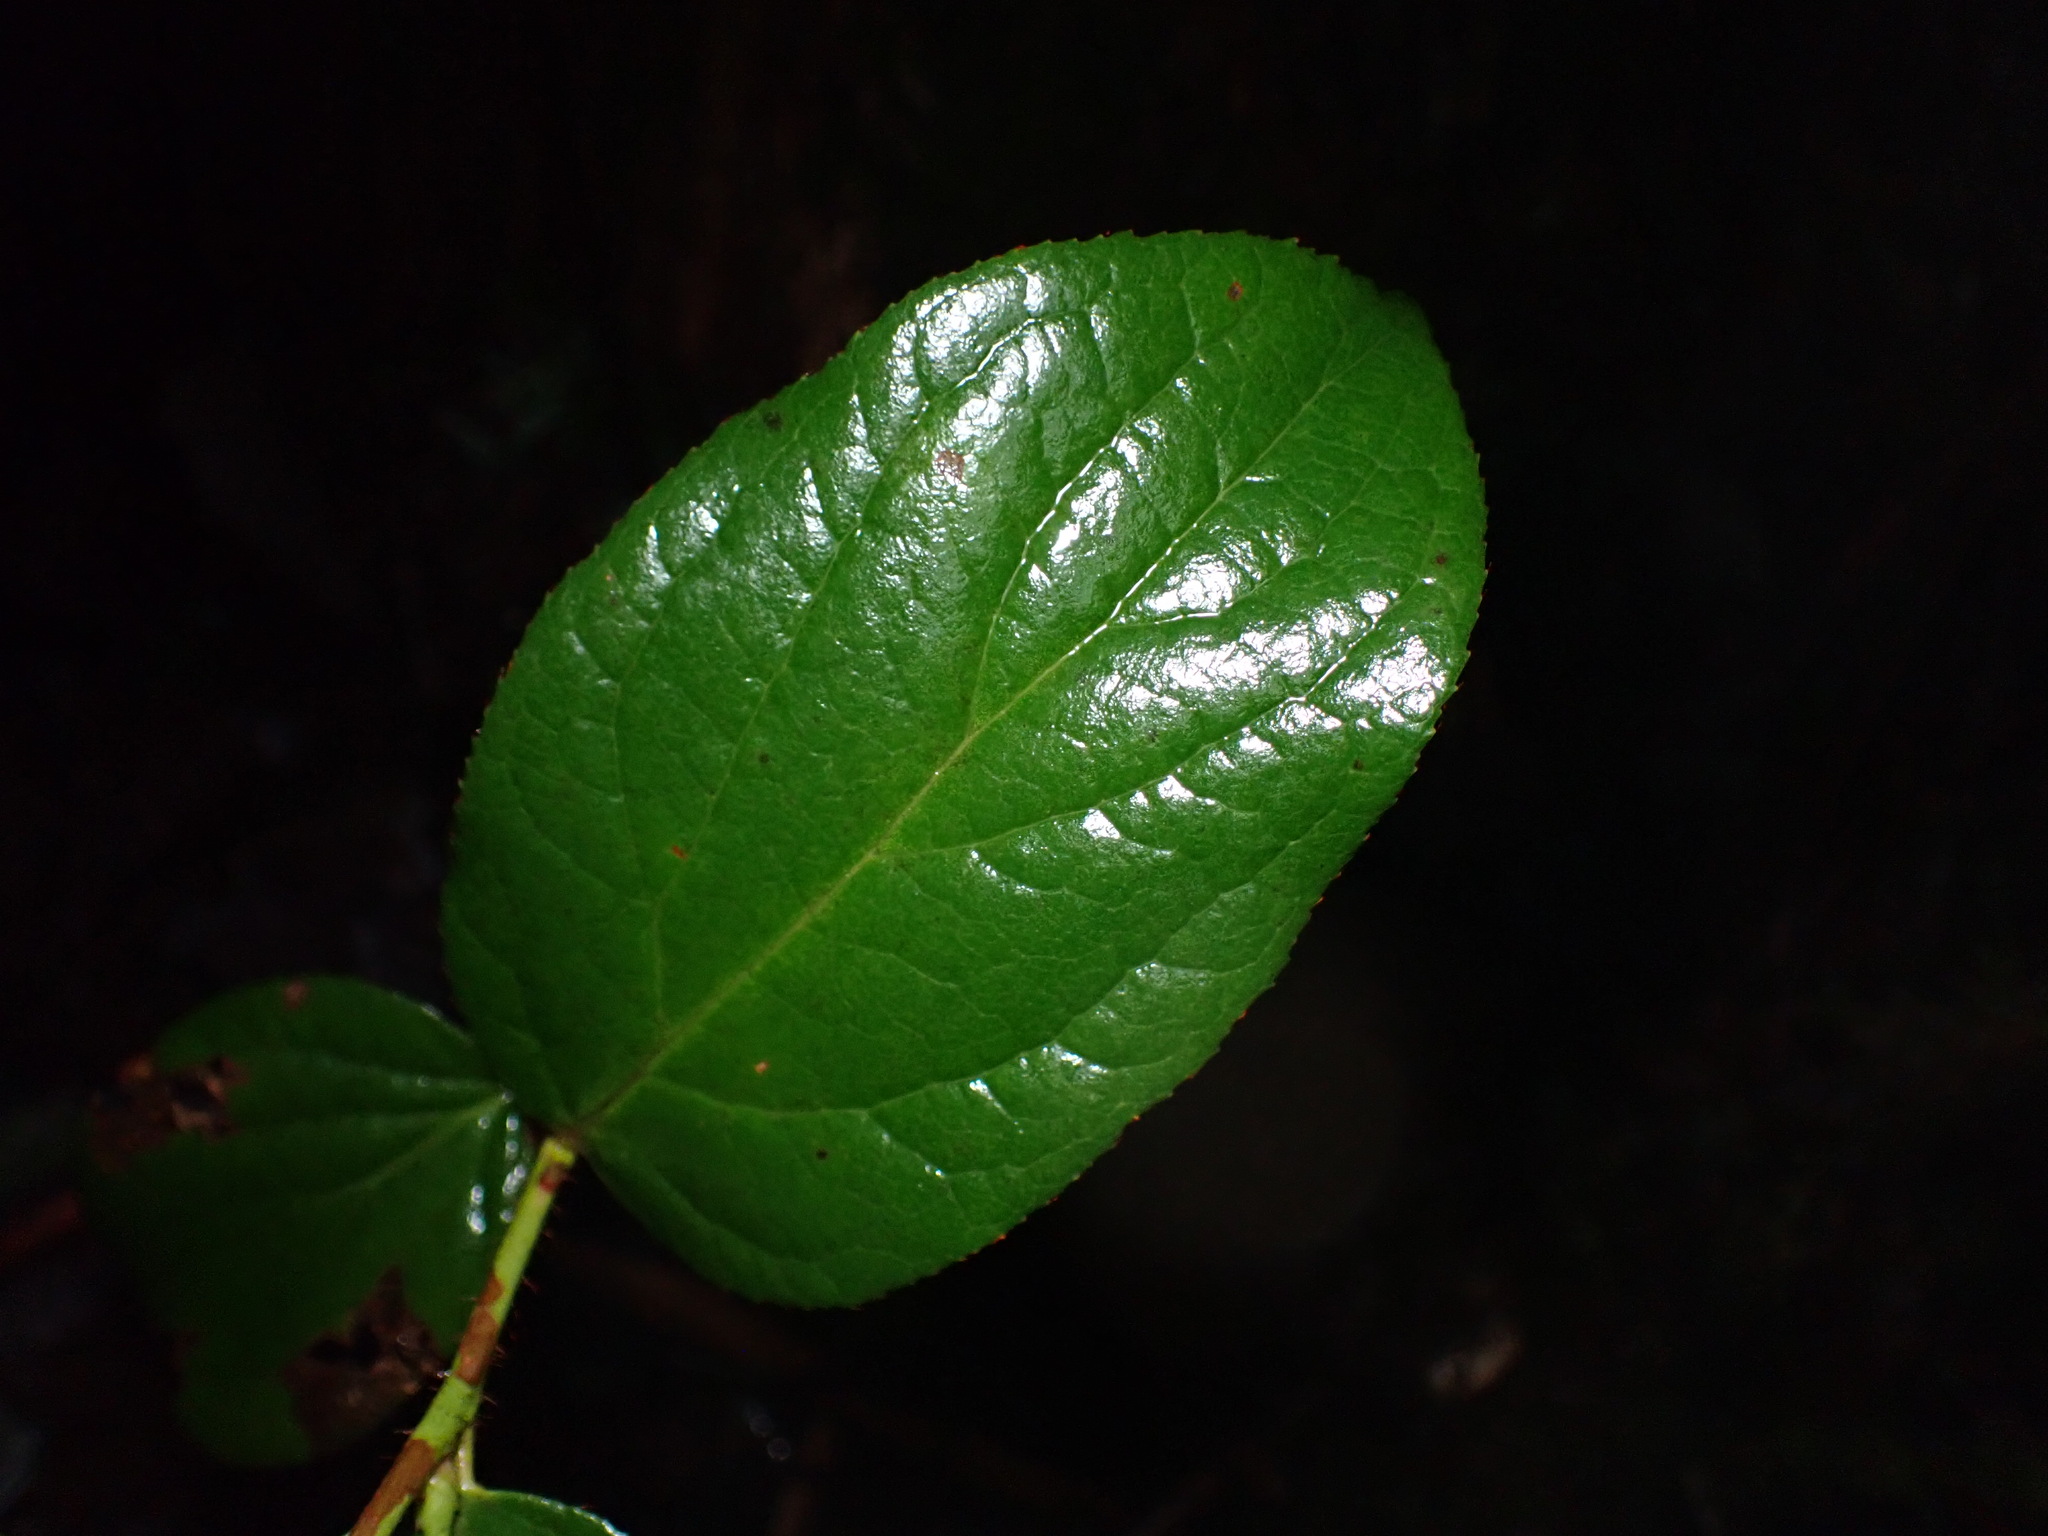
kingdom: Animalia
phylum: Arthropoda
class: Insecta
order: Lepidoptera
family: Gracillariidae
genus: Cameraria
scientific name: Cameraria gaultheriella
